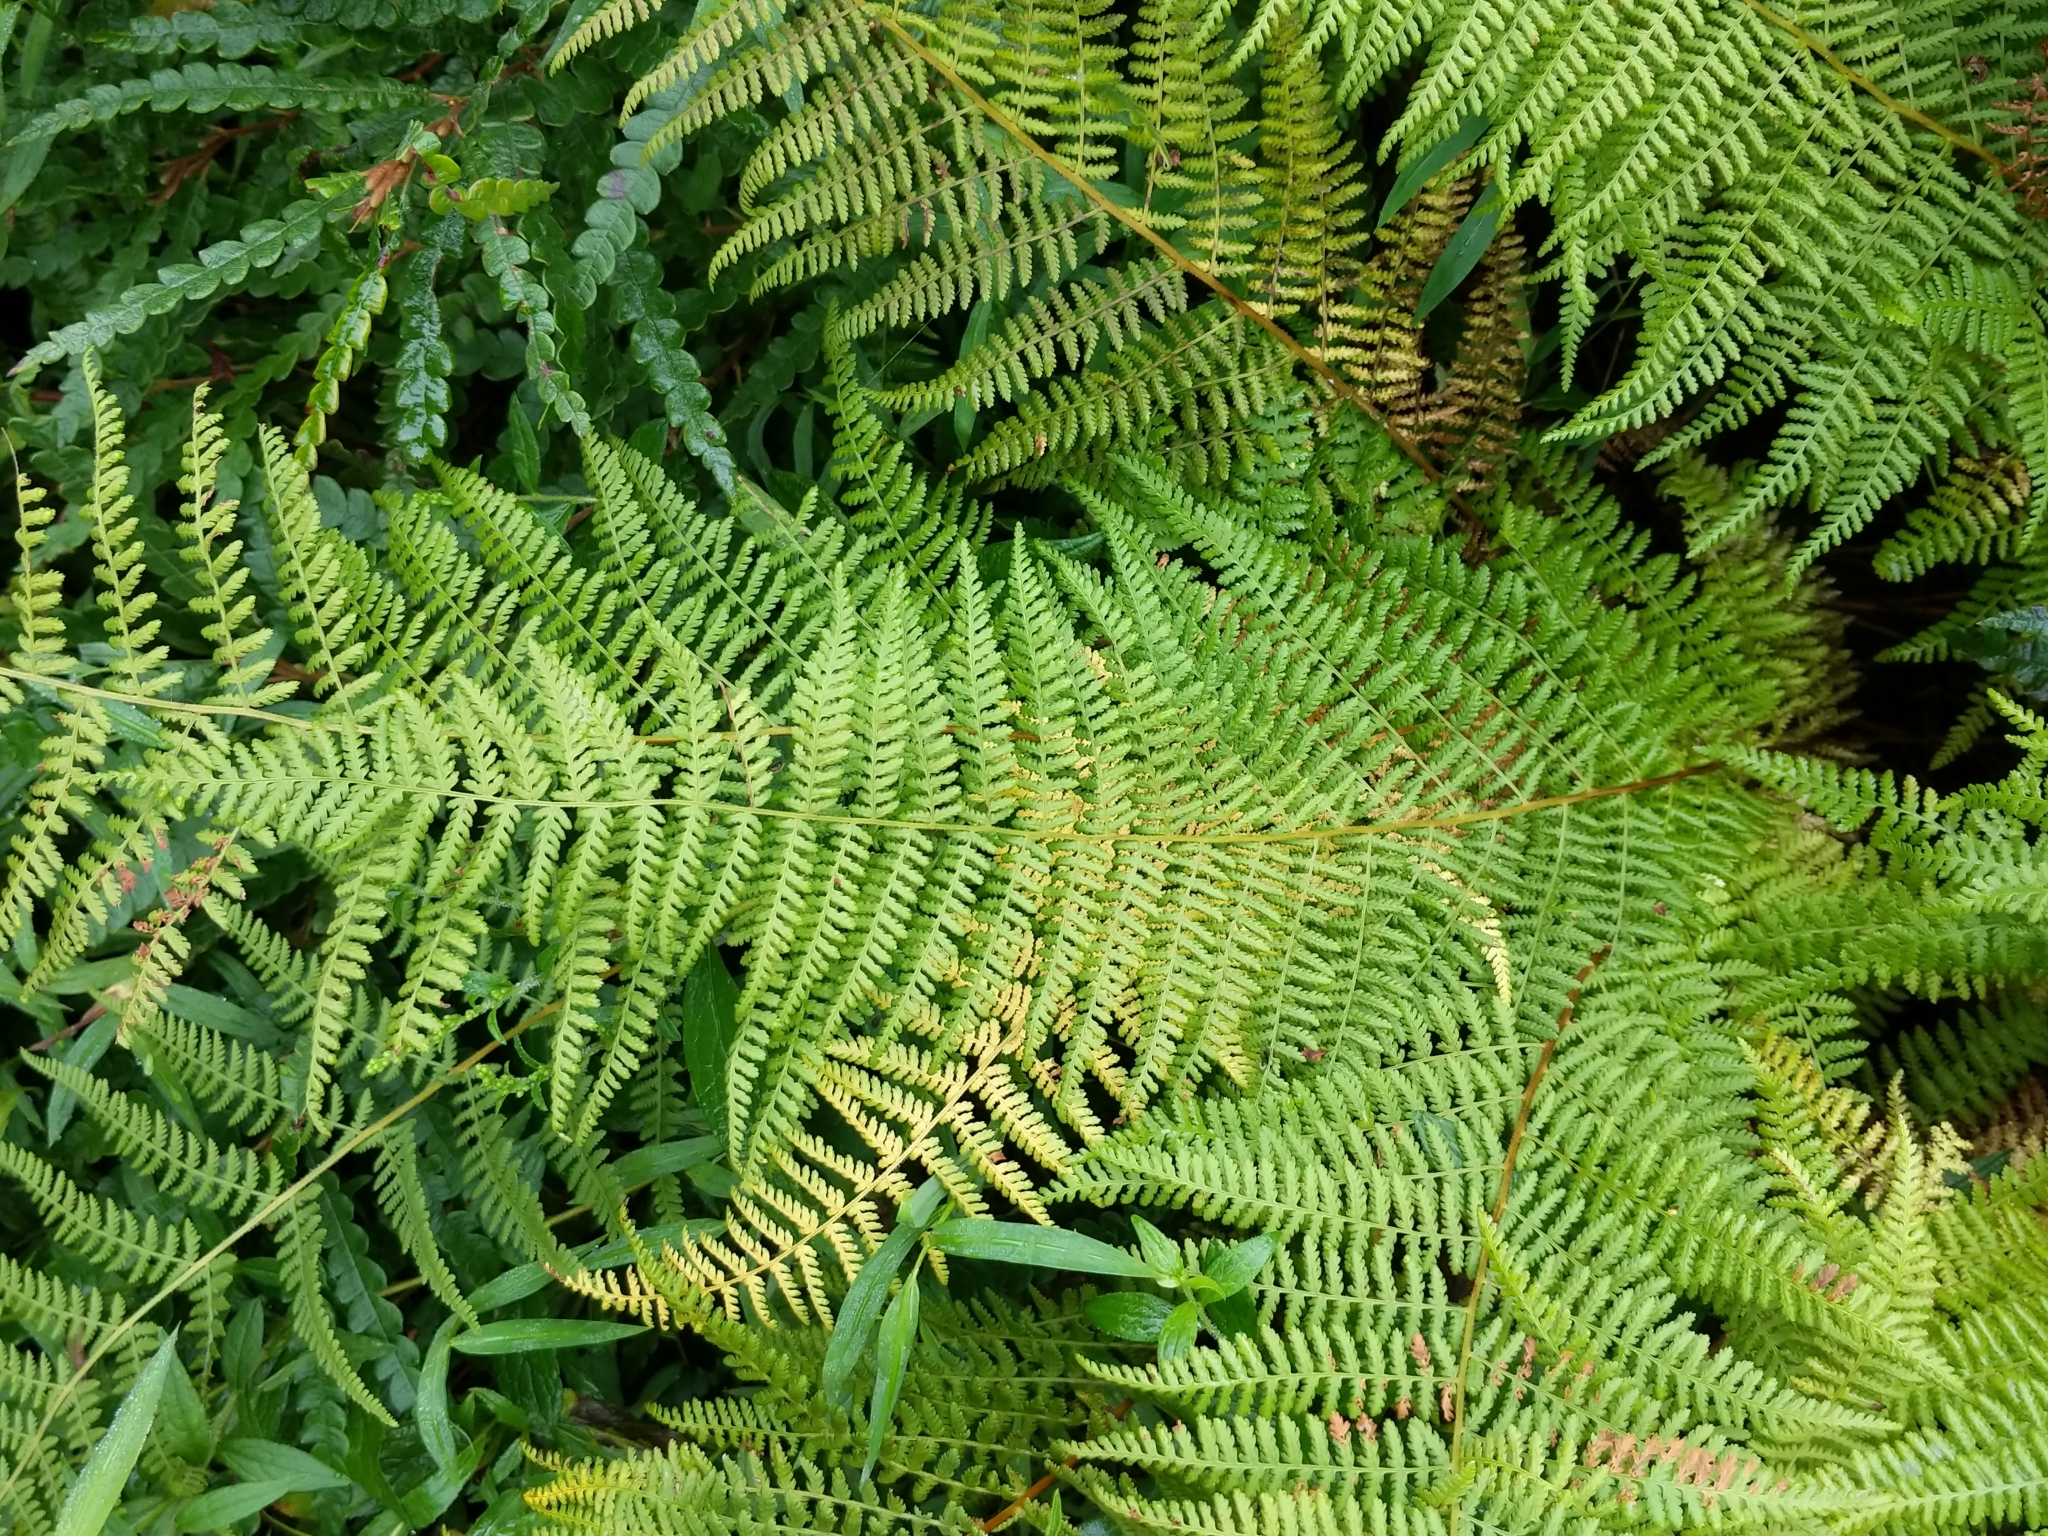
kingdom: Plantae
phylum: Tracheophyta
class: Polypodiopsida
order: Polypodiales
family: Dennstaedtiaceae
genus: Sitobolium
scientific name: Sitobolium punctilobum
